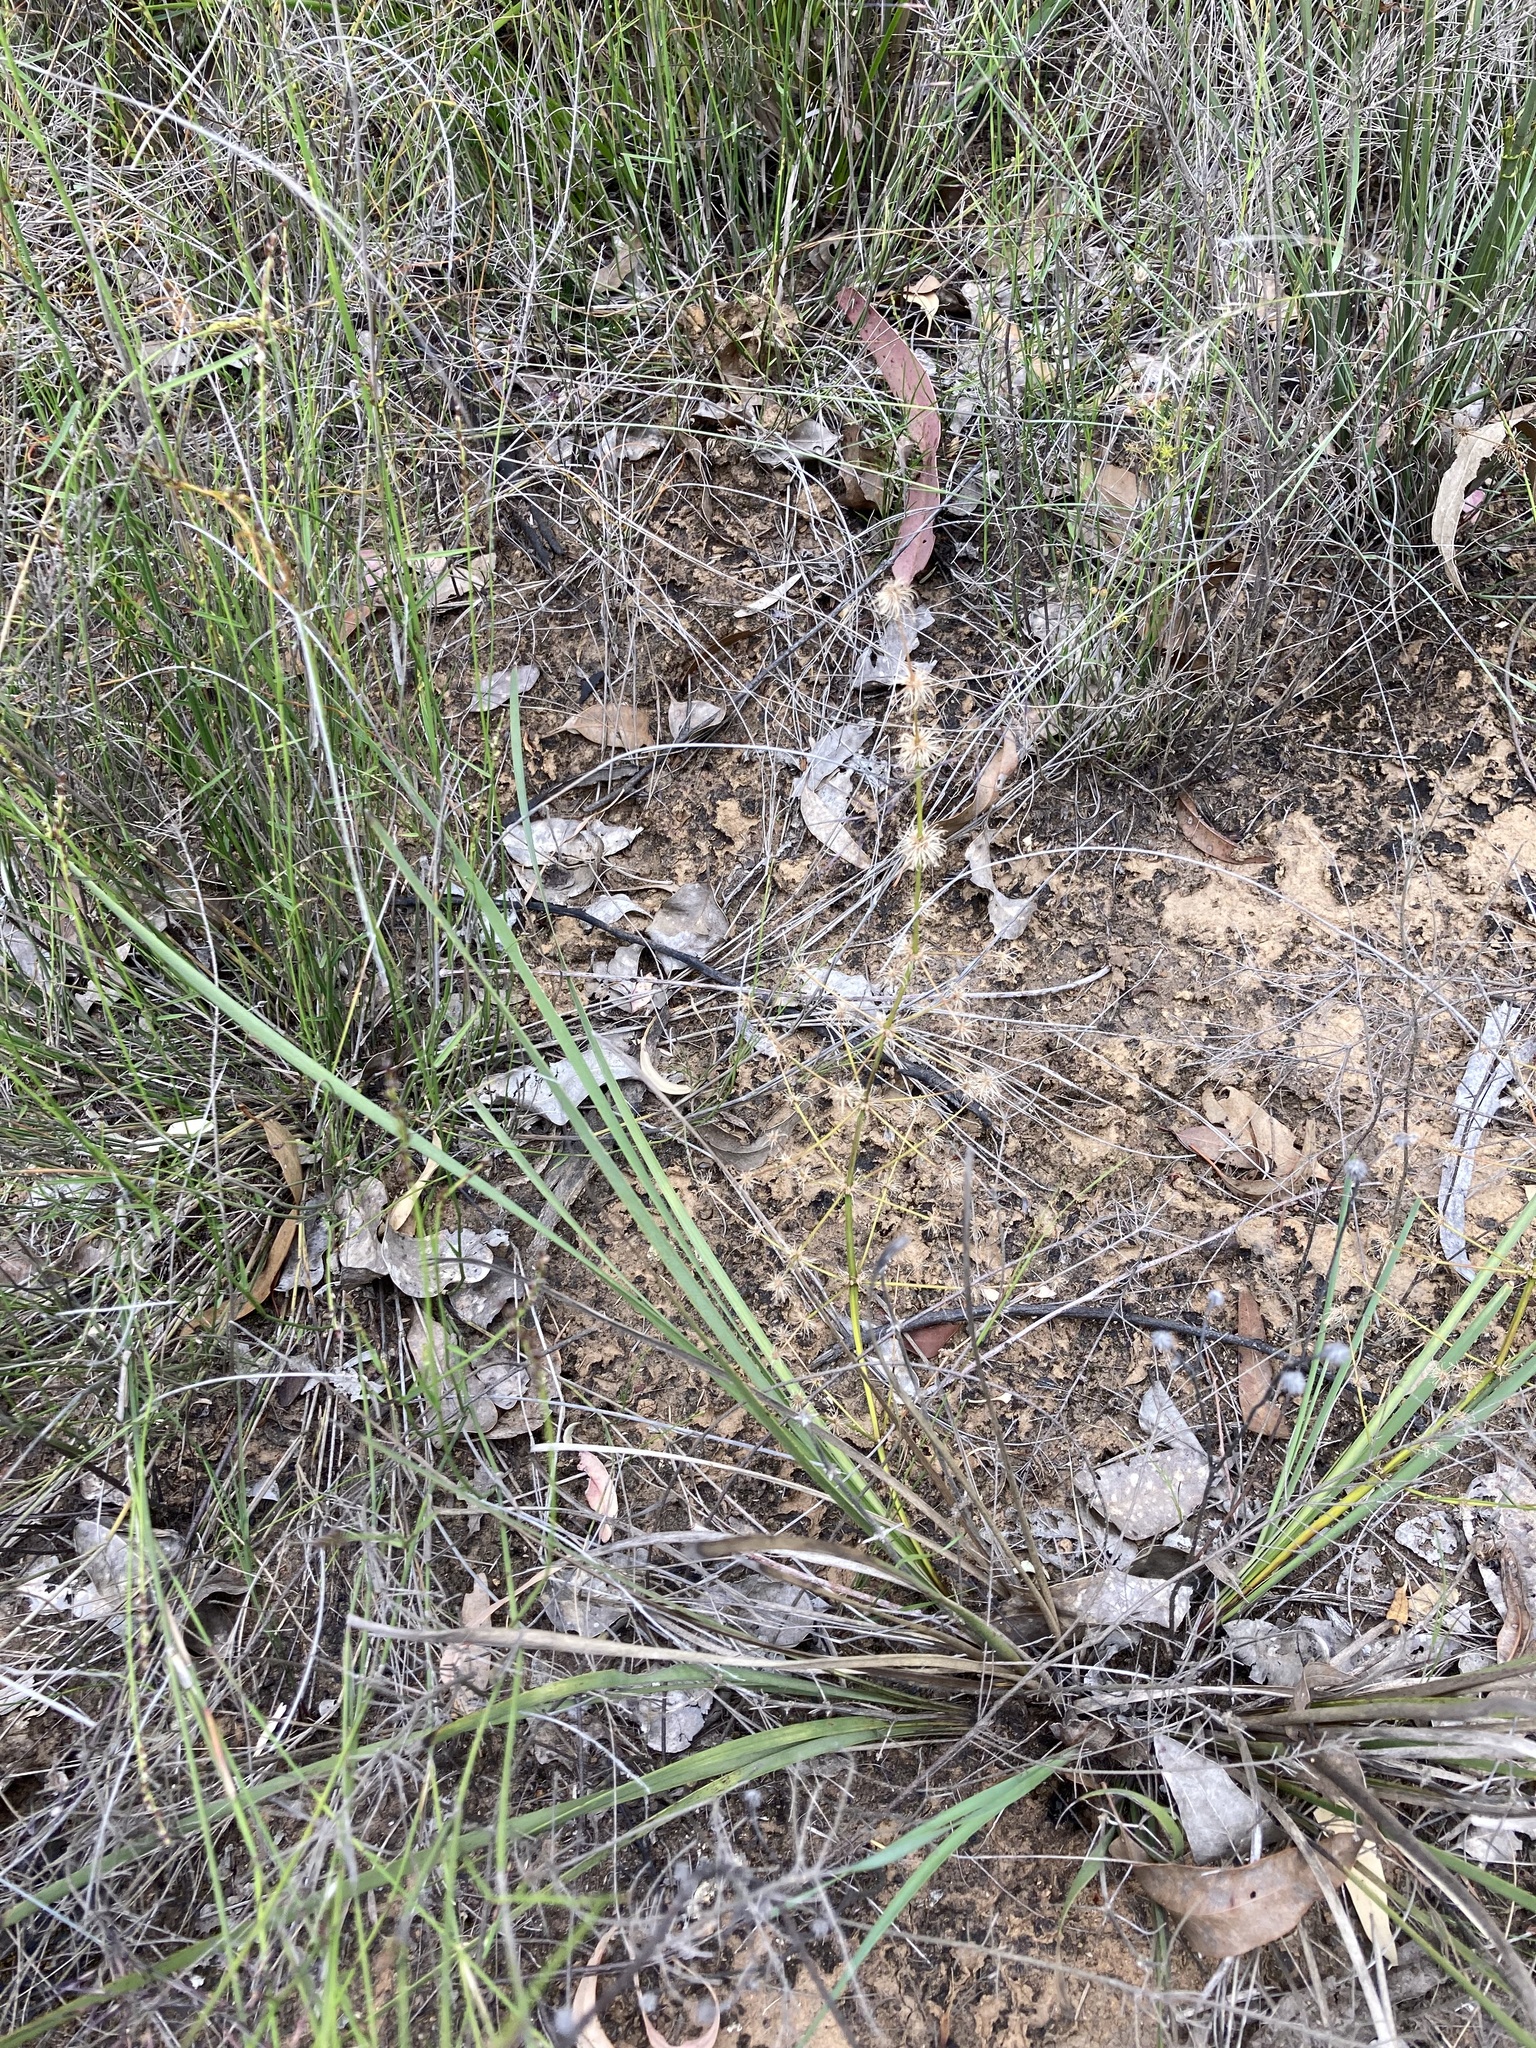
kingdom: Plantae
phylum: Tracheophyta
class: Liliopsida
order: Asparagales
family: Asparagaceae
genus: Lomandra
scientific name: Lomandra multiflora
